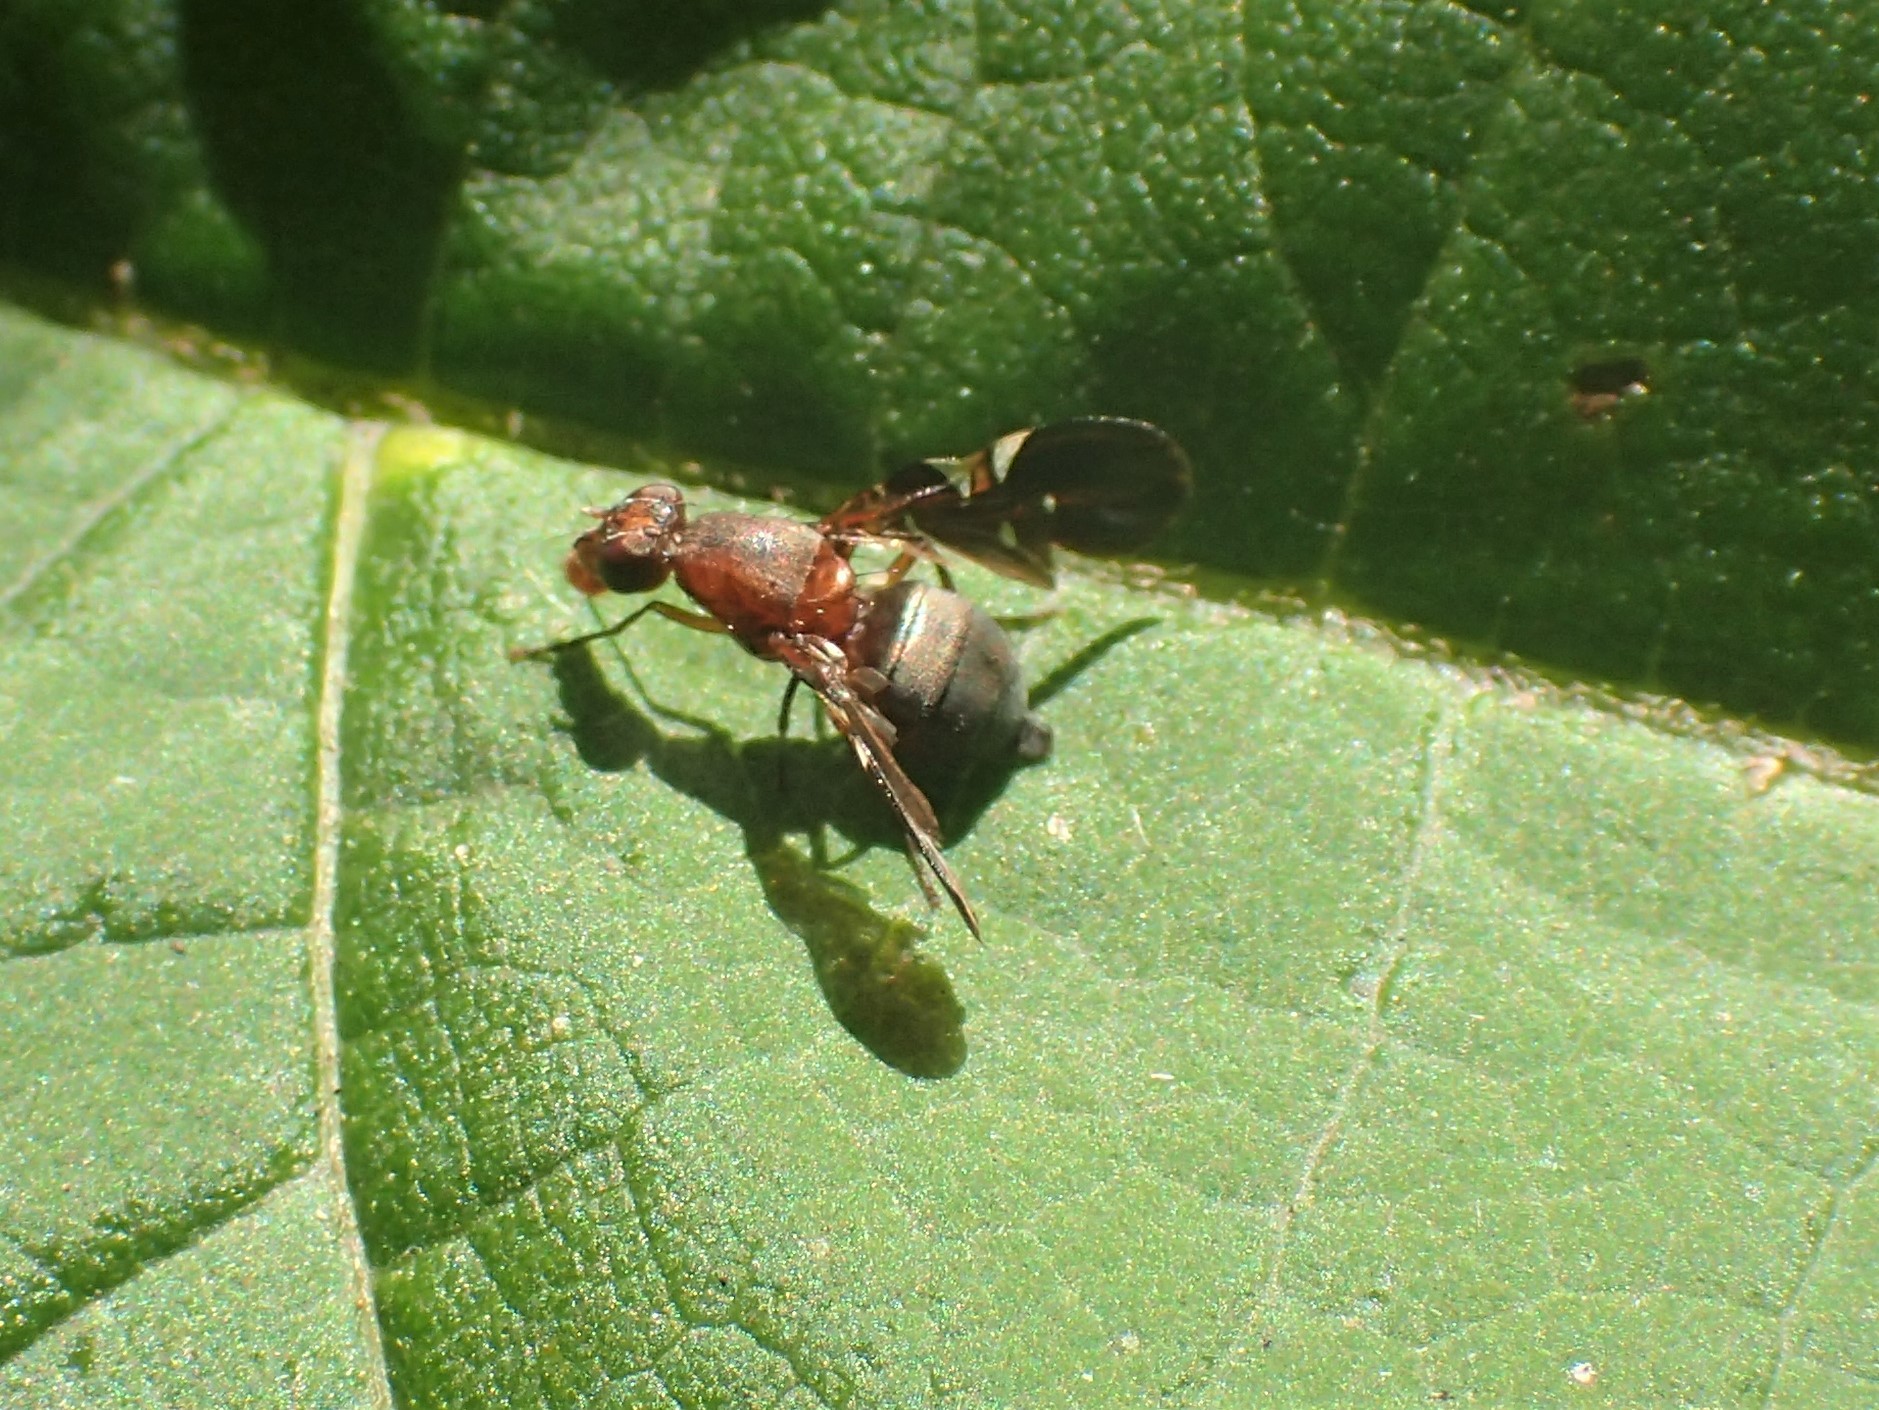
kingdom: Animalia
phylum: Arthropoda
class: Insecta
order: Diptera
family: Ulidiidae
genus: Delphinia
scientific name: Delphinia picta
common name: Common picture-winged fly
